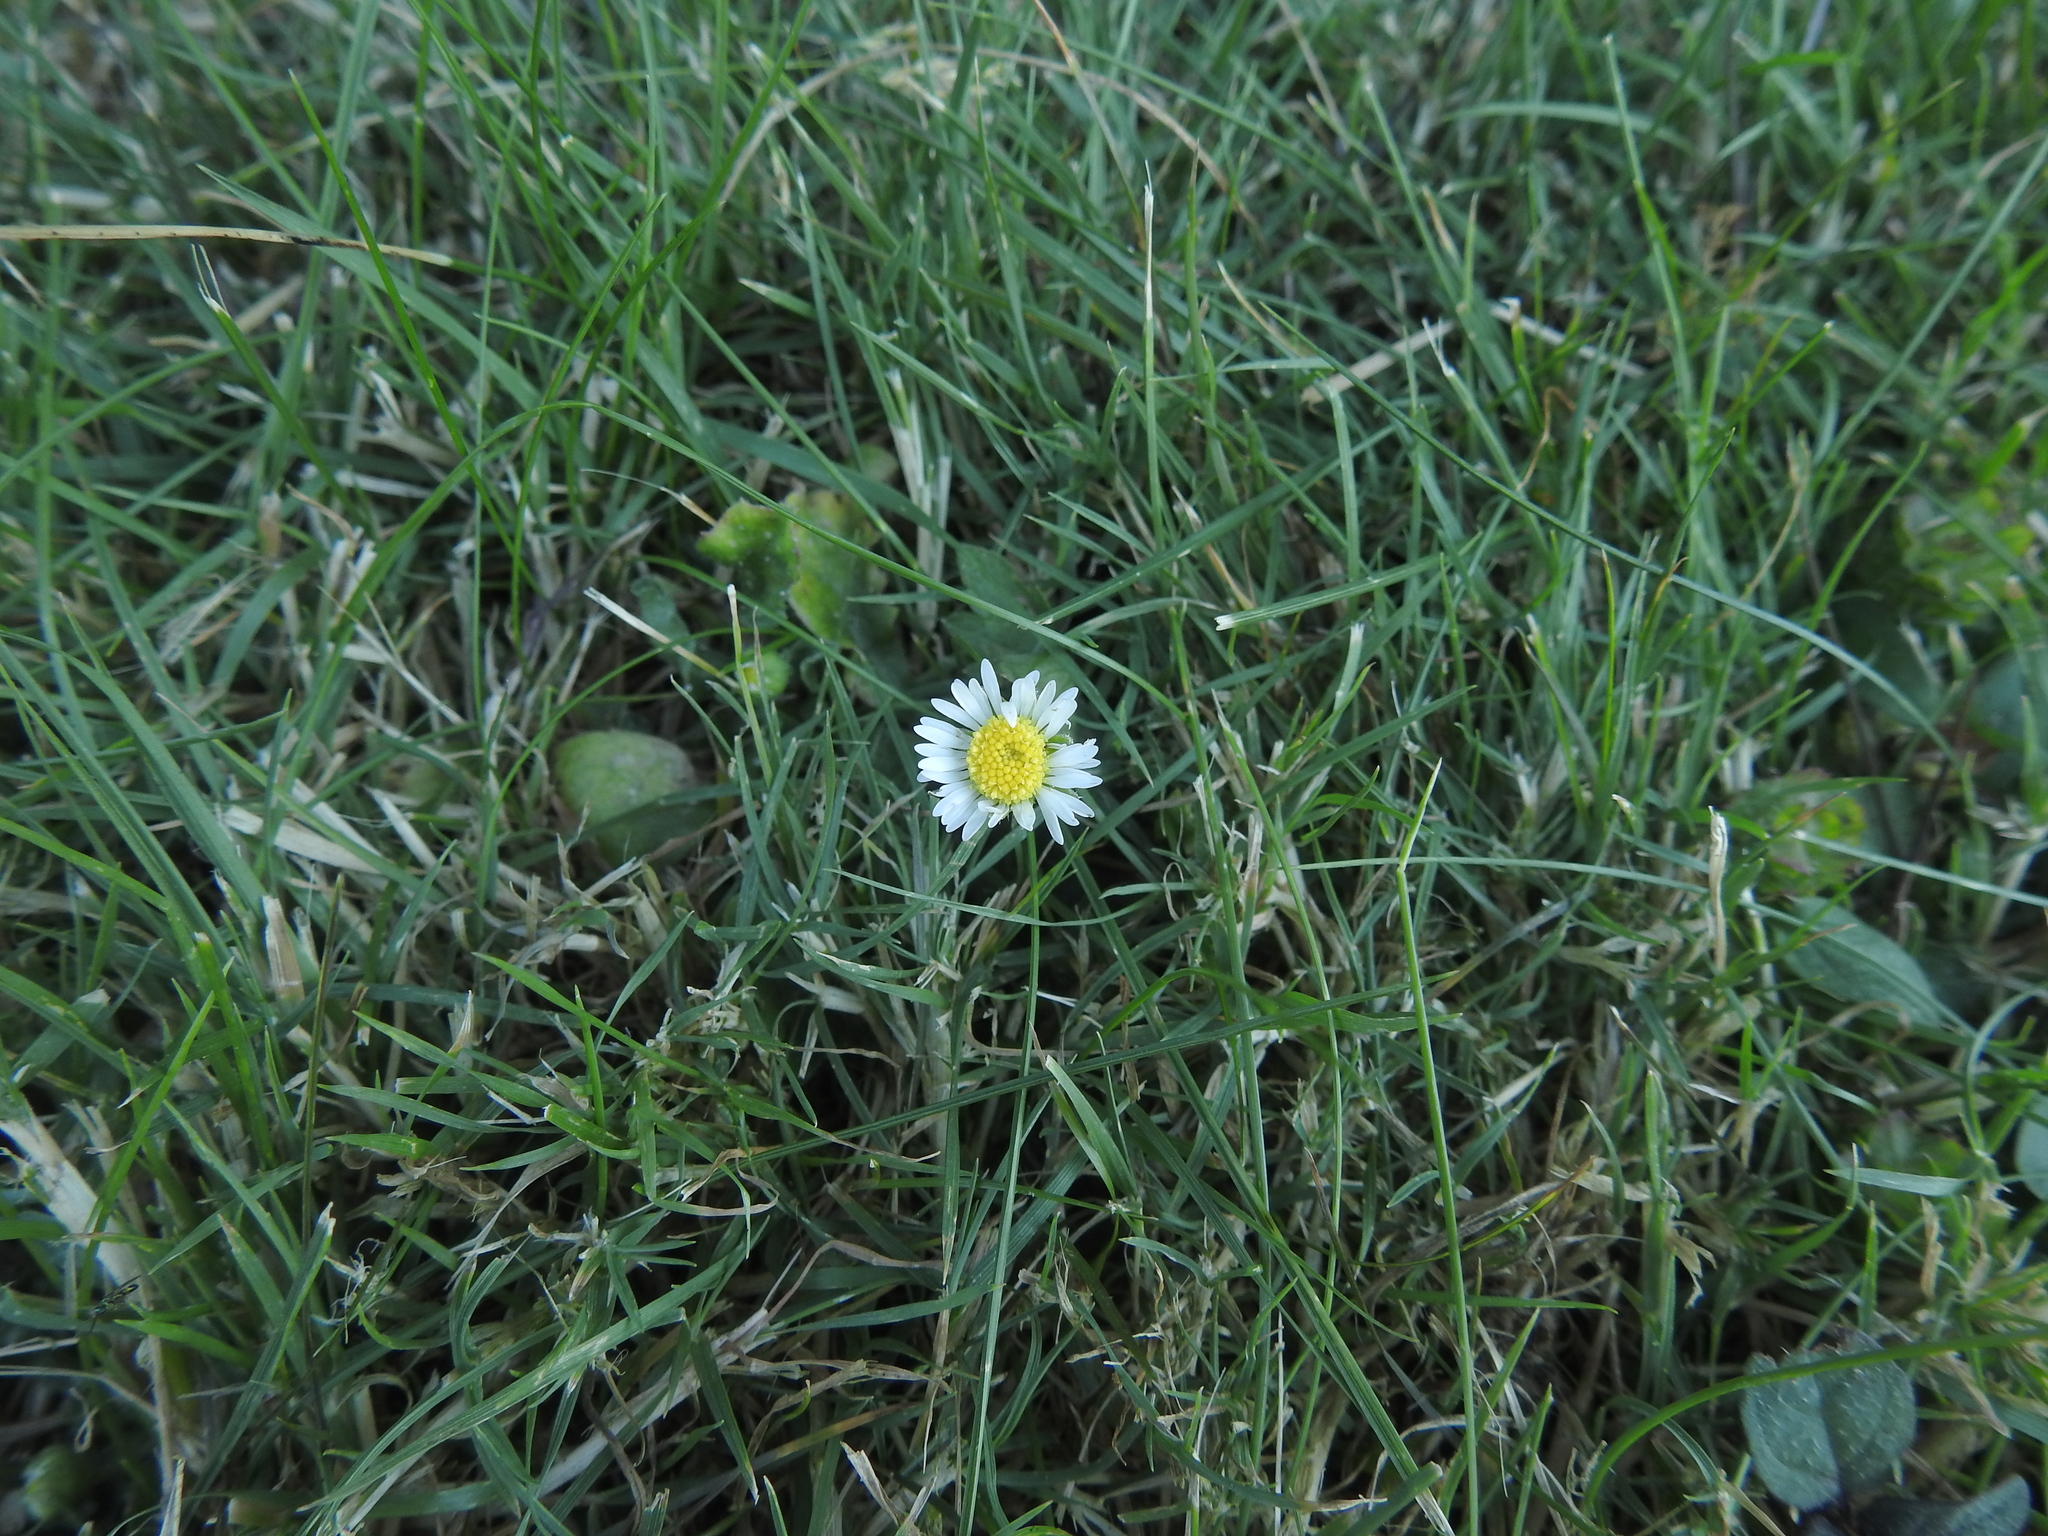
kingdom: Plantae
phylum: Tracheophyta
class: Magnoliopsida
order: Asterales
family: Asteraceae
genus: Bellis
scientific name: Bellis perennis
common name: Lawndaisy
